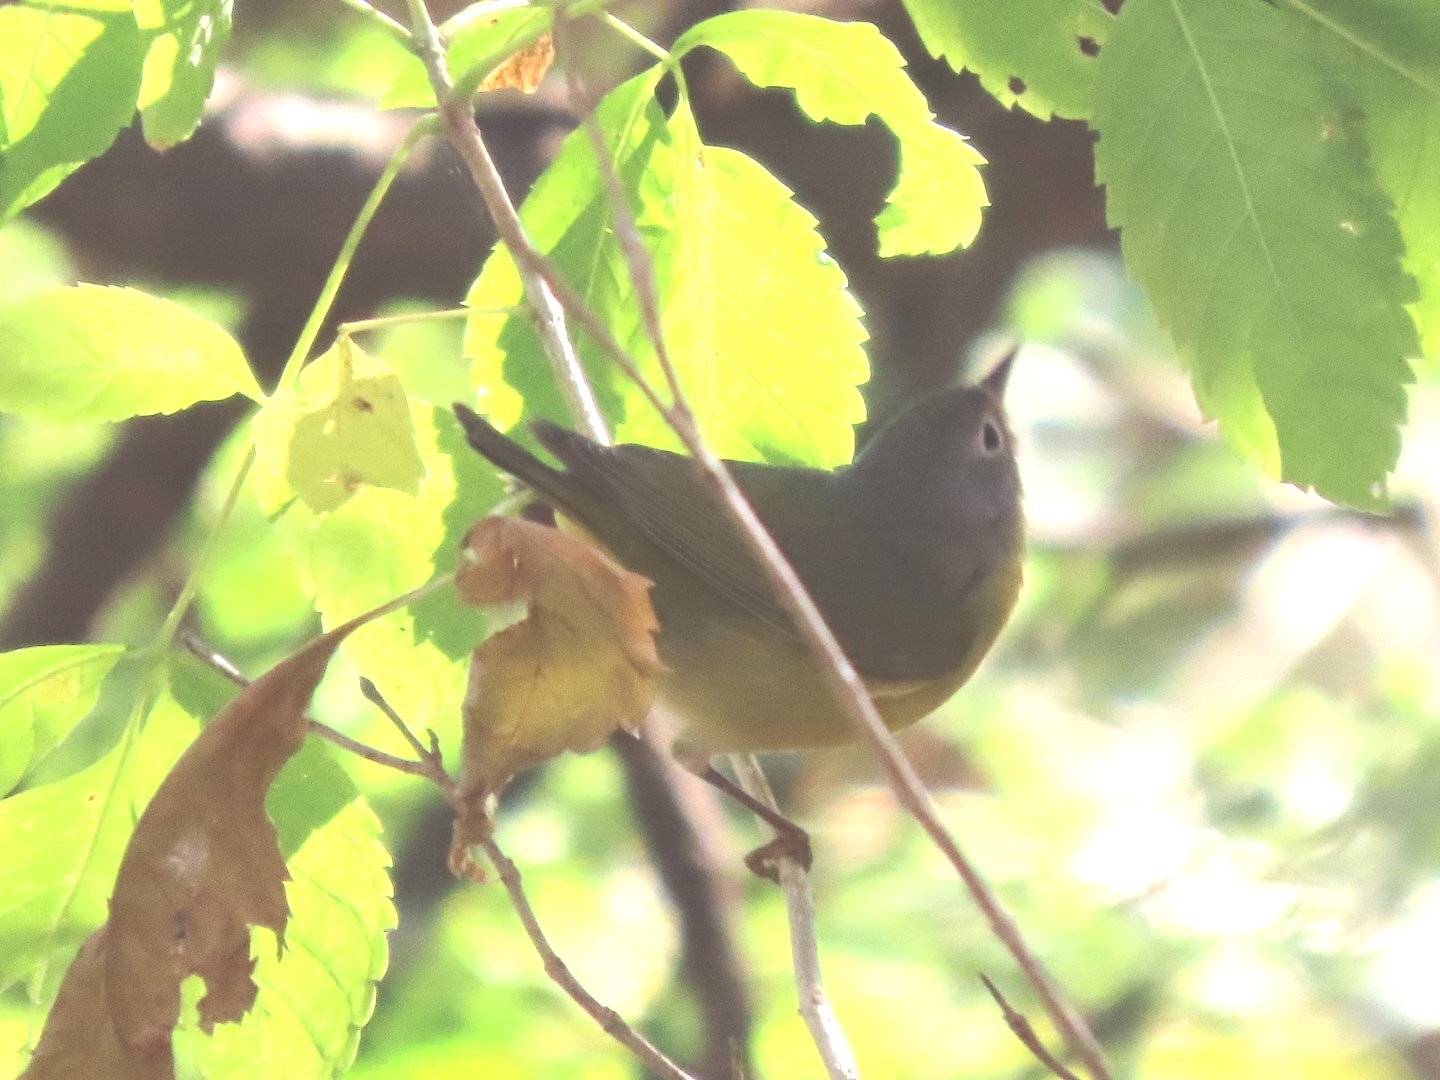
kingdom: Animalia
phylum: Chordata
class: Aves
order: Passeriformes
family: Parulidae
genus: Leiothlypis
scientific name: Leiothlypis ruficapilla
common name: Nashville warbler
